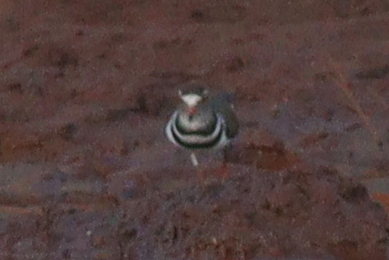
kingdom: Animalia
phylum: Chordata
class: Aves
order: Charadriiformes
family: Charadriidae
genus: Charadrius
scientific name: Charadrius tricollaris
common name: Three-banded plover
